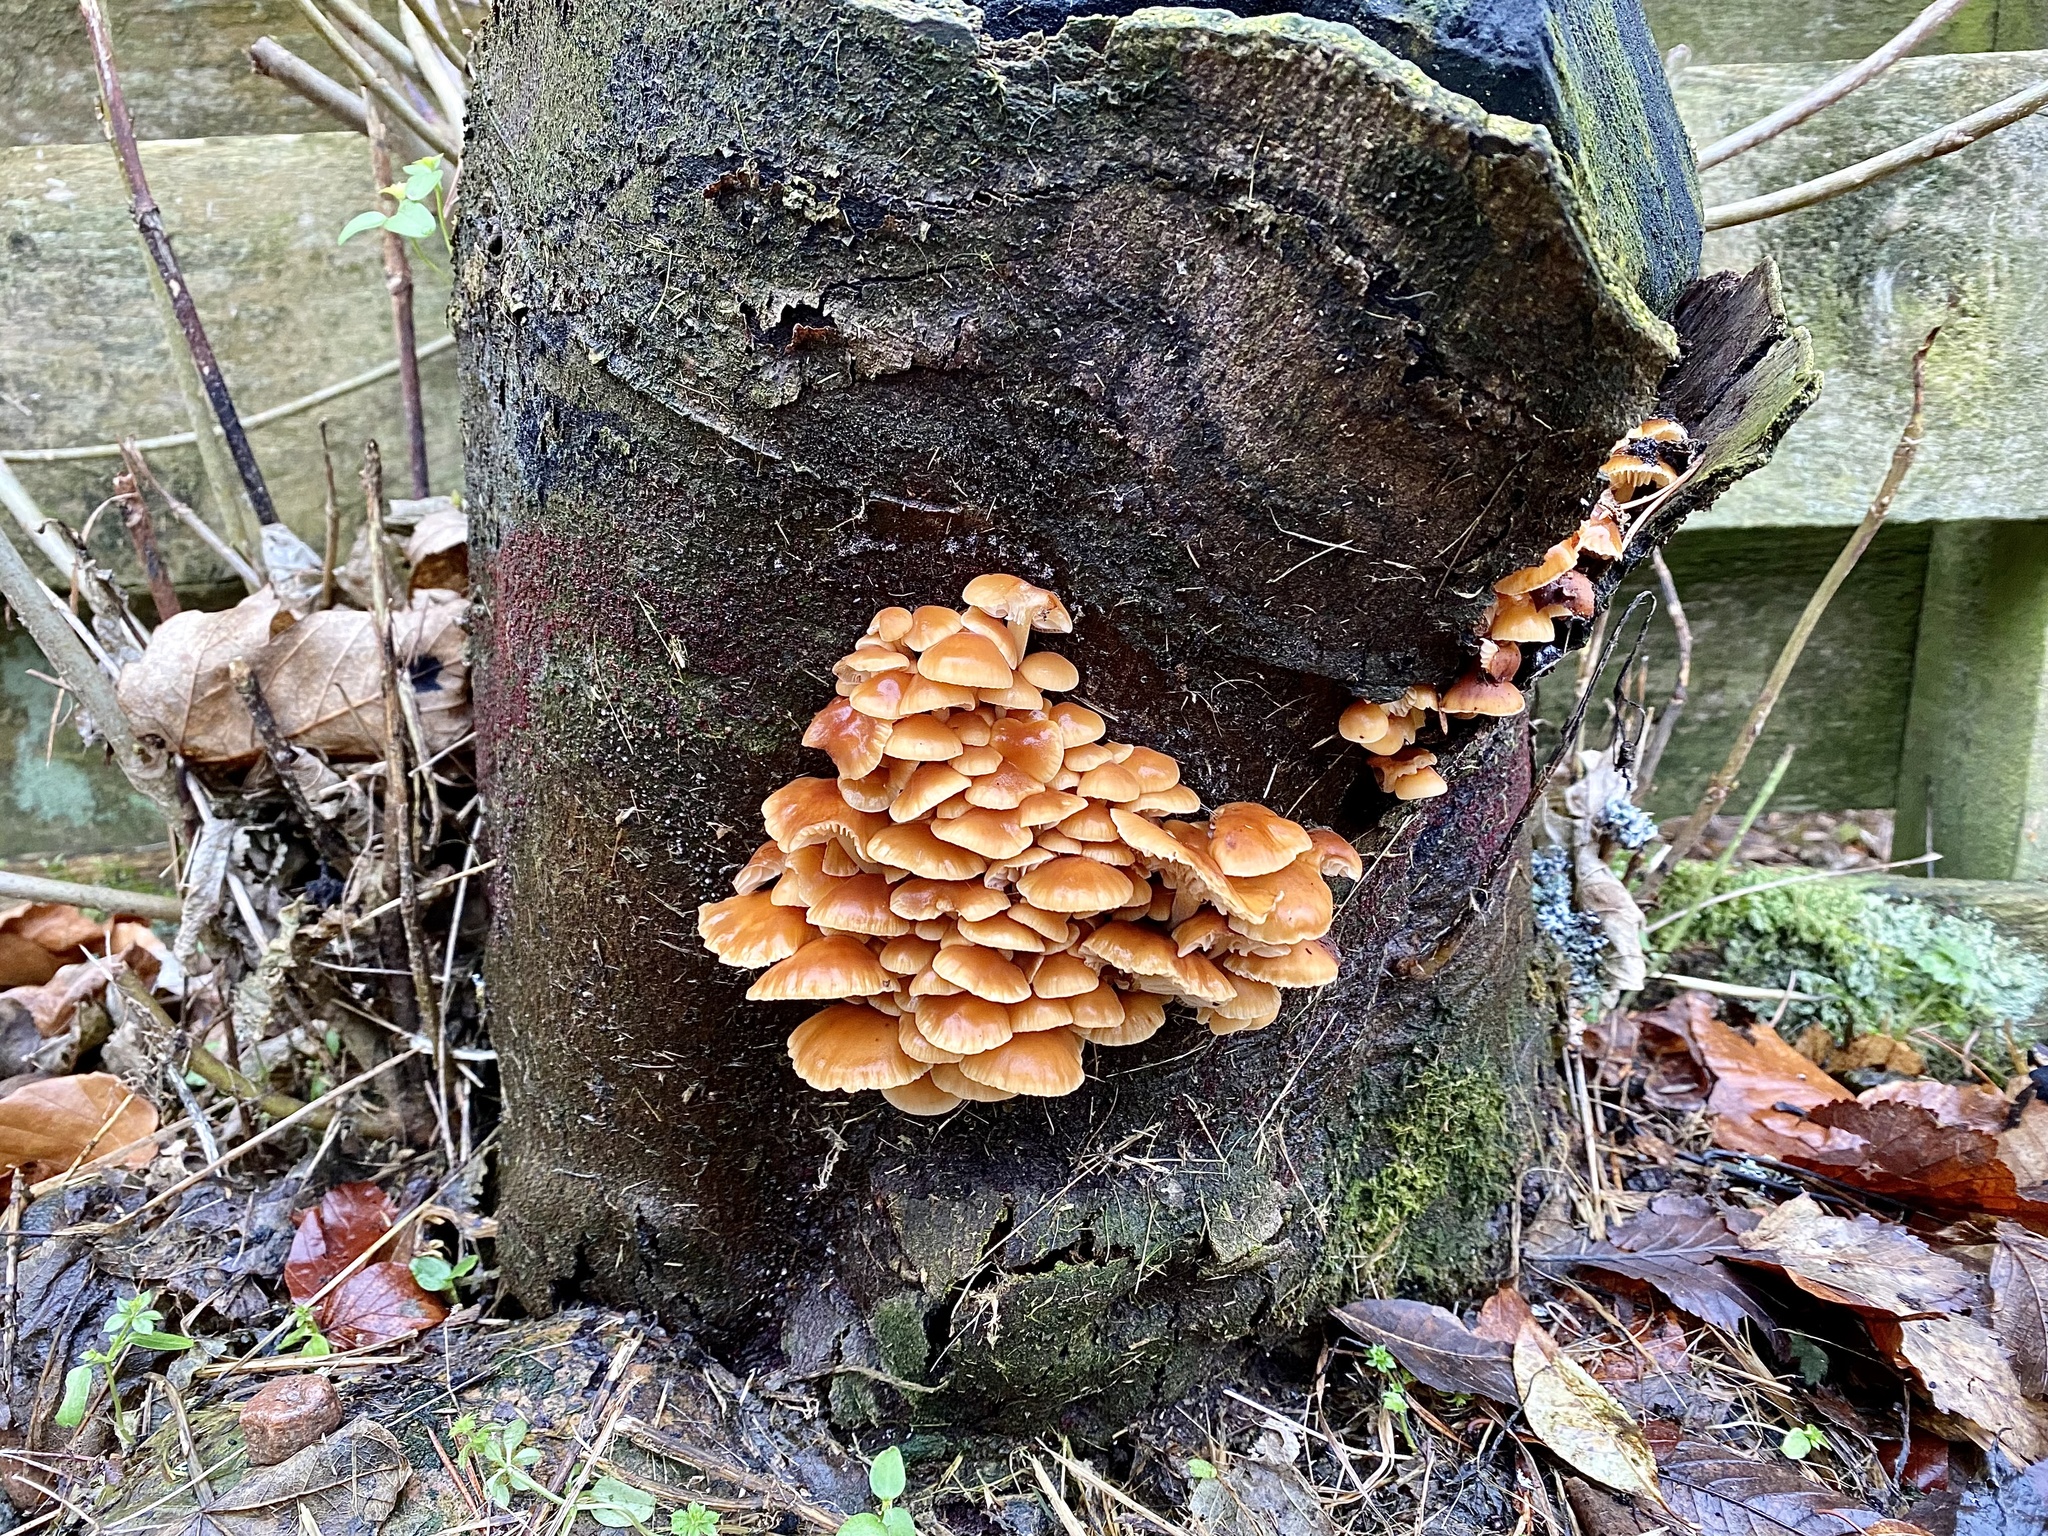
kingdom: Fungi
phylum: Basidiomycota
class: Agaricomycetes
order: Agaricales
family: Physalacriaceae
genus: Flammulina
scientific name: Flammulina
